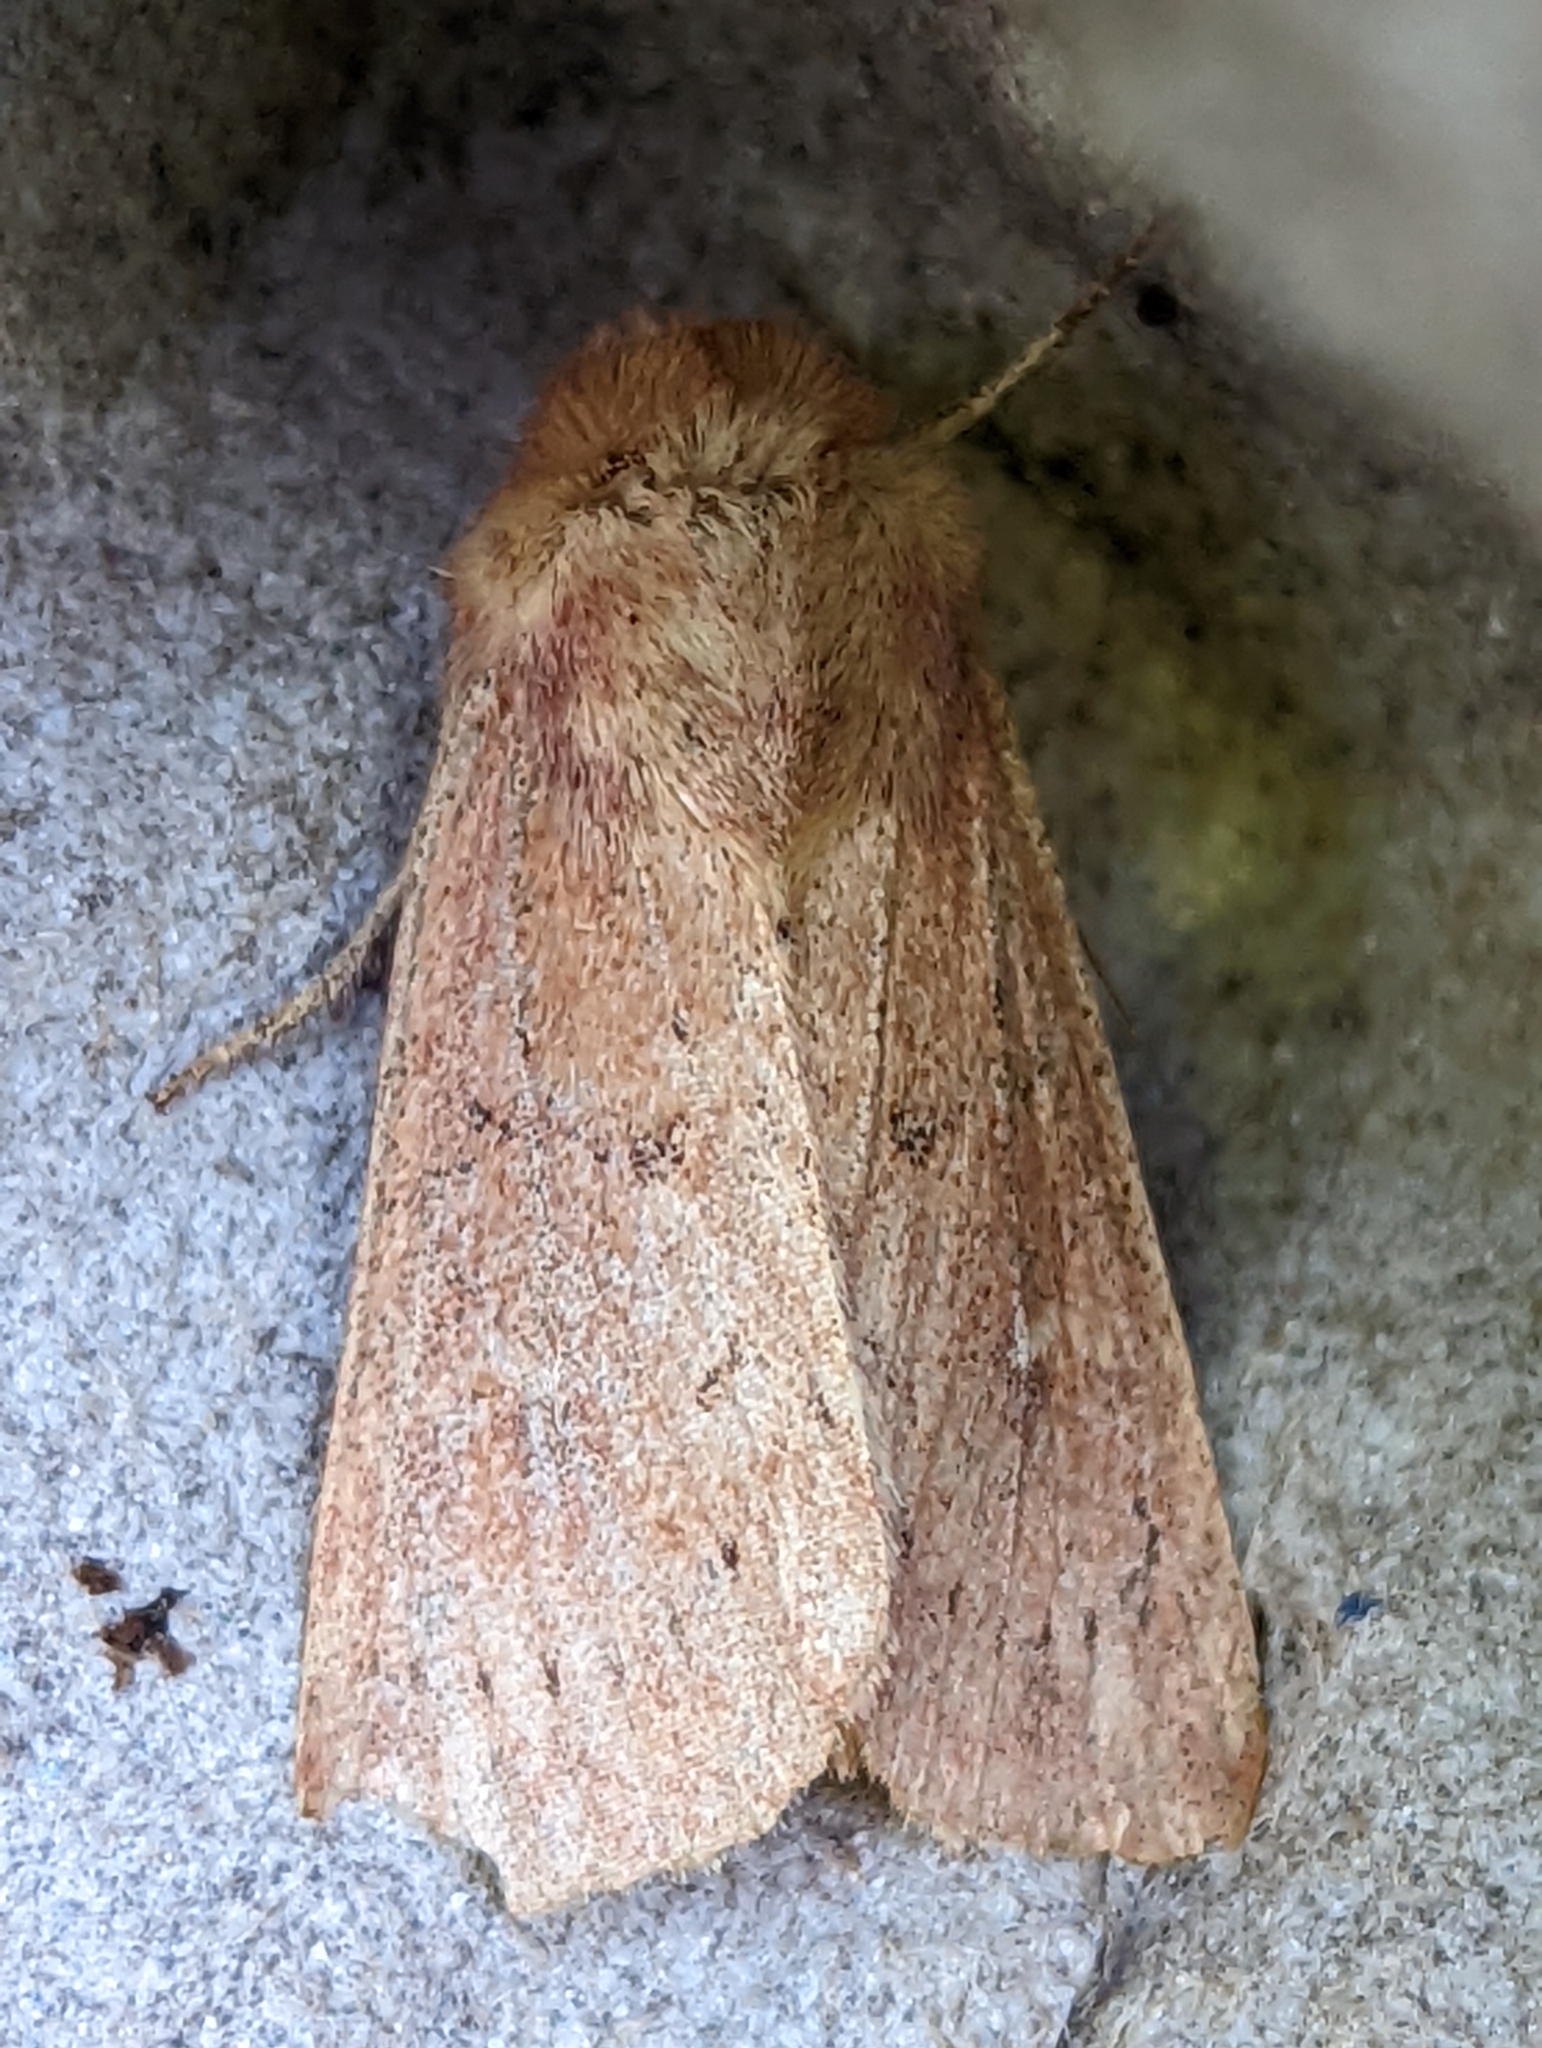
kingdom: Animalia
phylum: Arthropoda
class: Insecta
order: Lepidoptera
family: Noctuidae
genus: Mythimna
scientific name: Mythimna ferrago
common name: Clay
